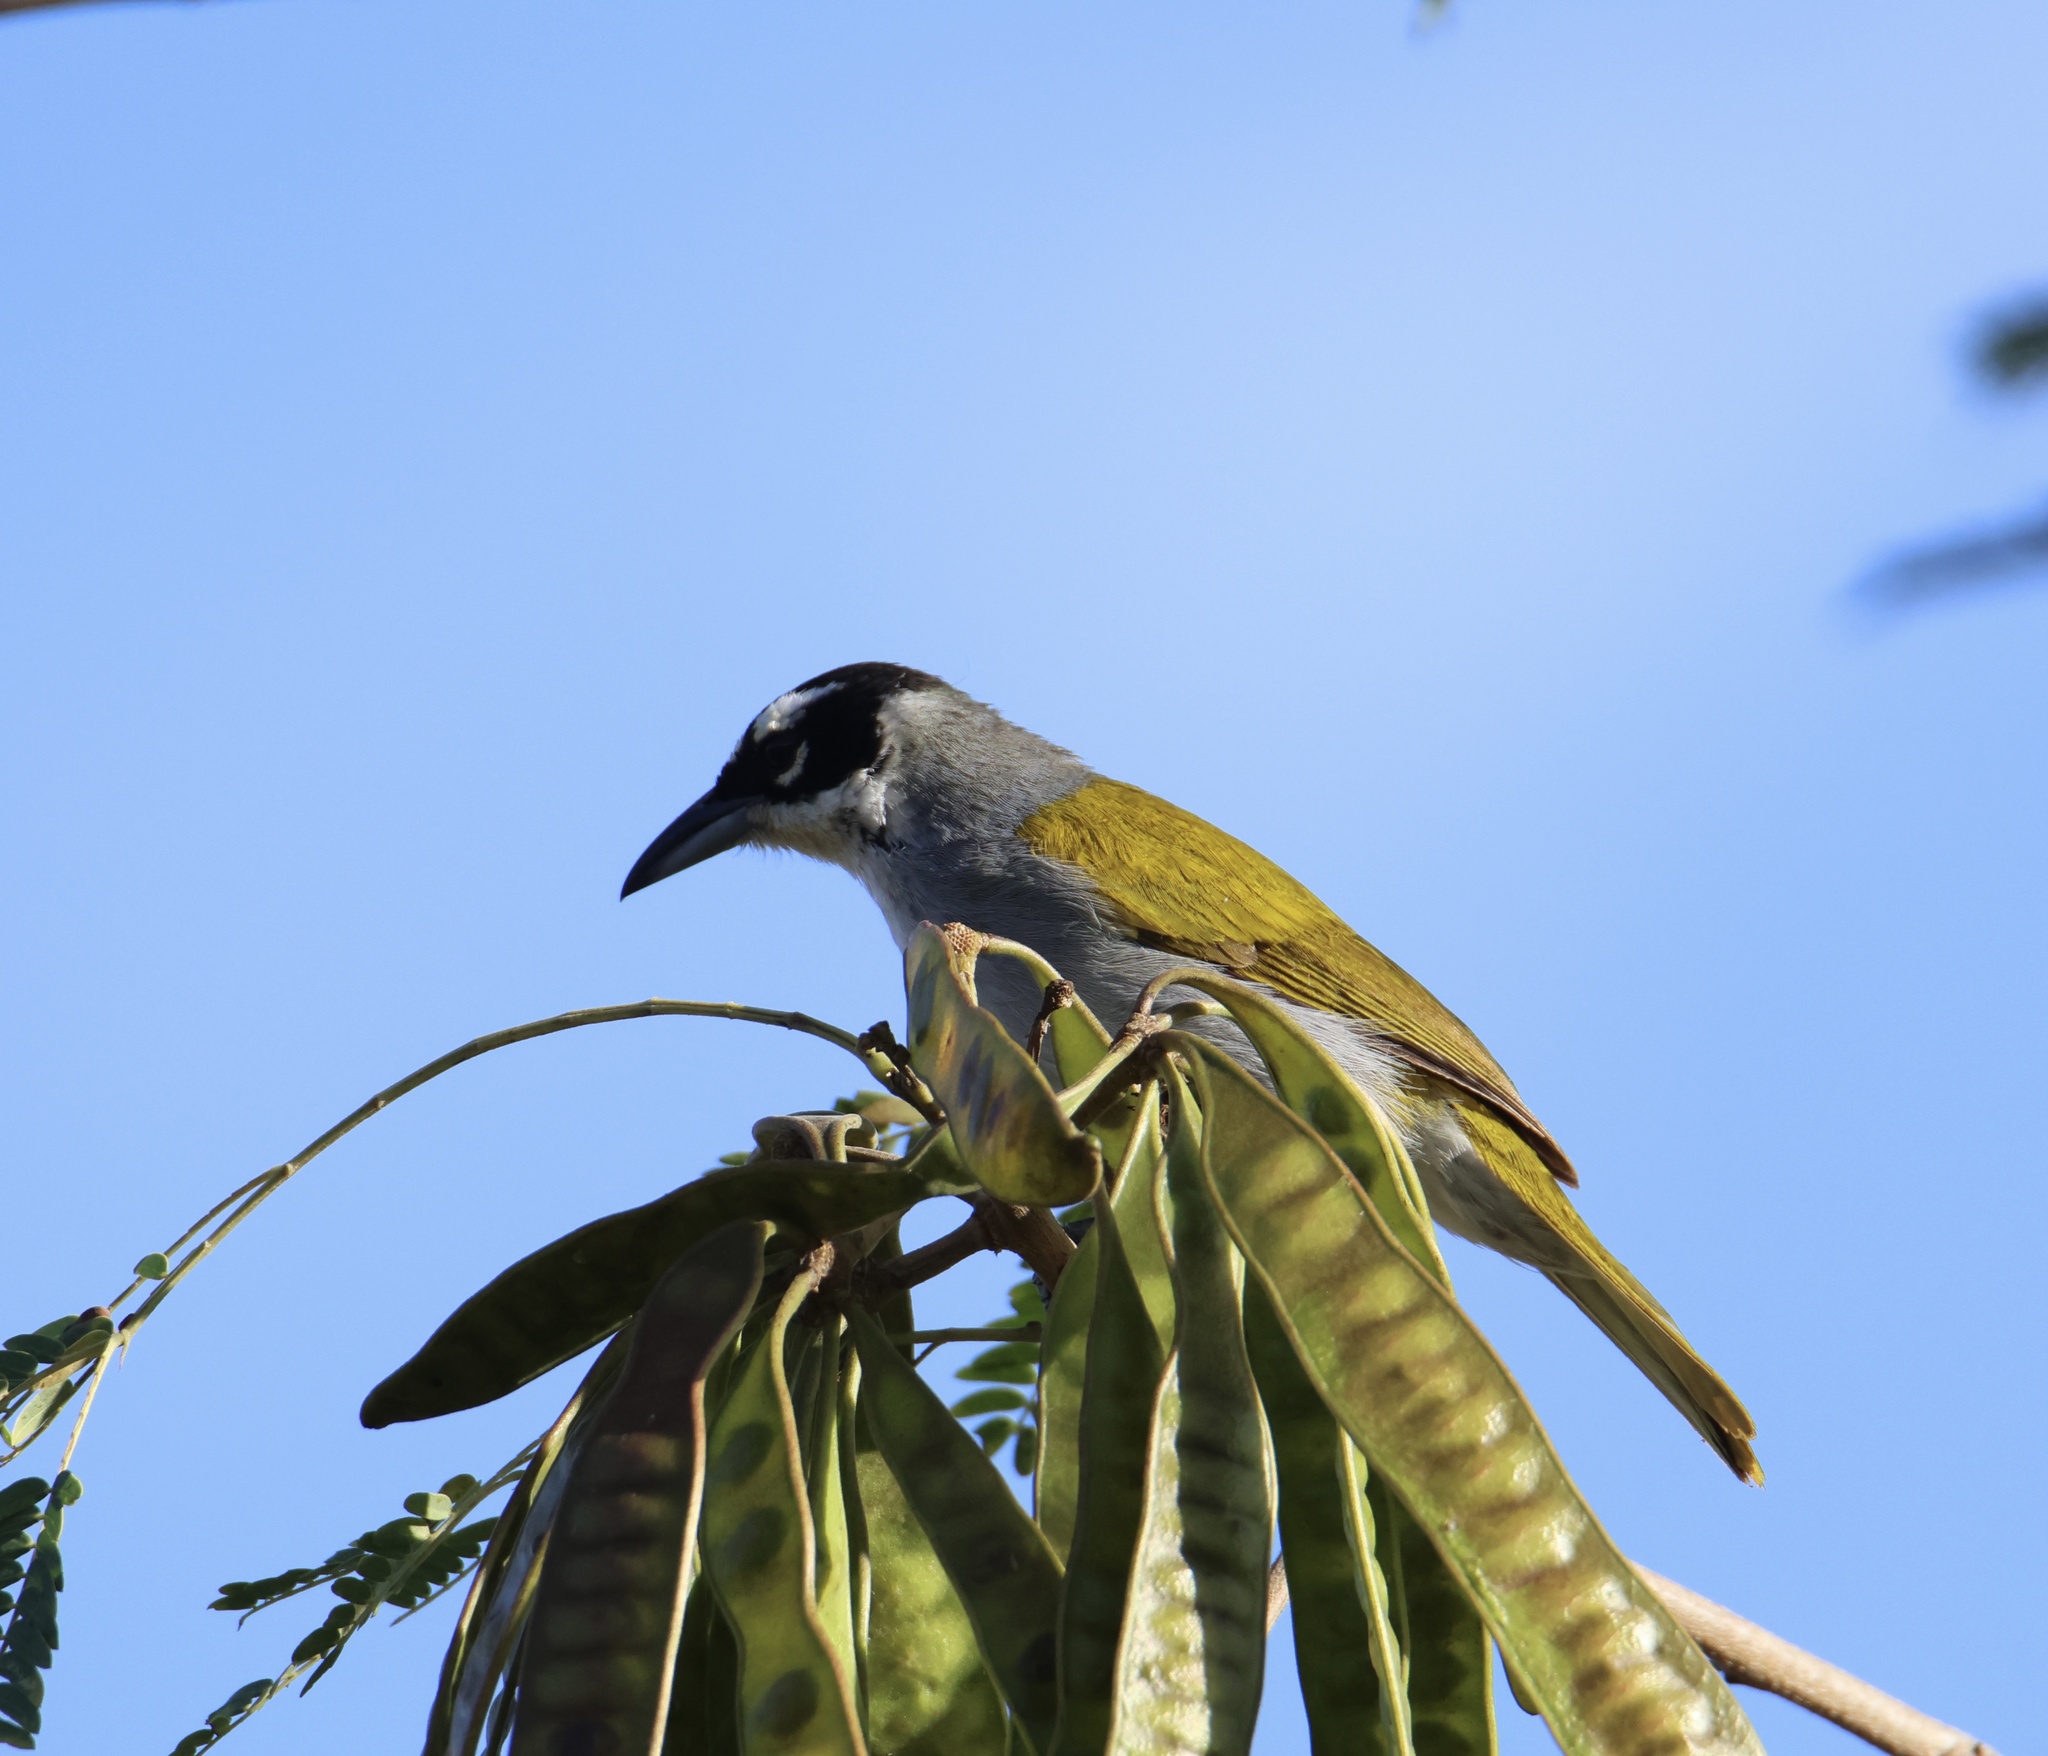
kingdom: Animalia
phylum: Chordata
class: Aves
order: Passeriformes
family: Phaenicophilidae
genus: Phaenicophilus
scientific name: Phaenicophilus palmarum
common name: Black-crowned palm-tanager
